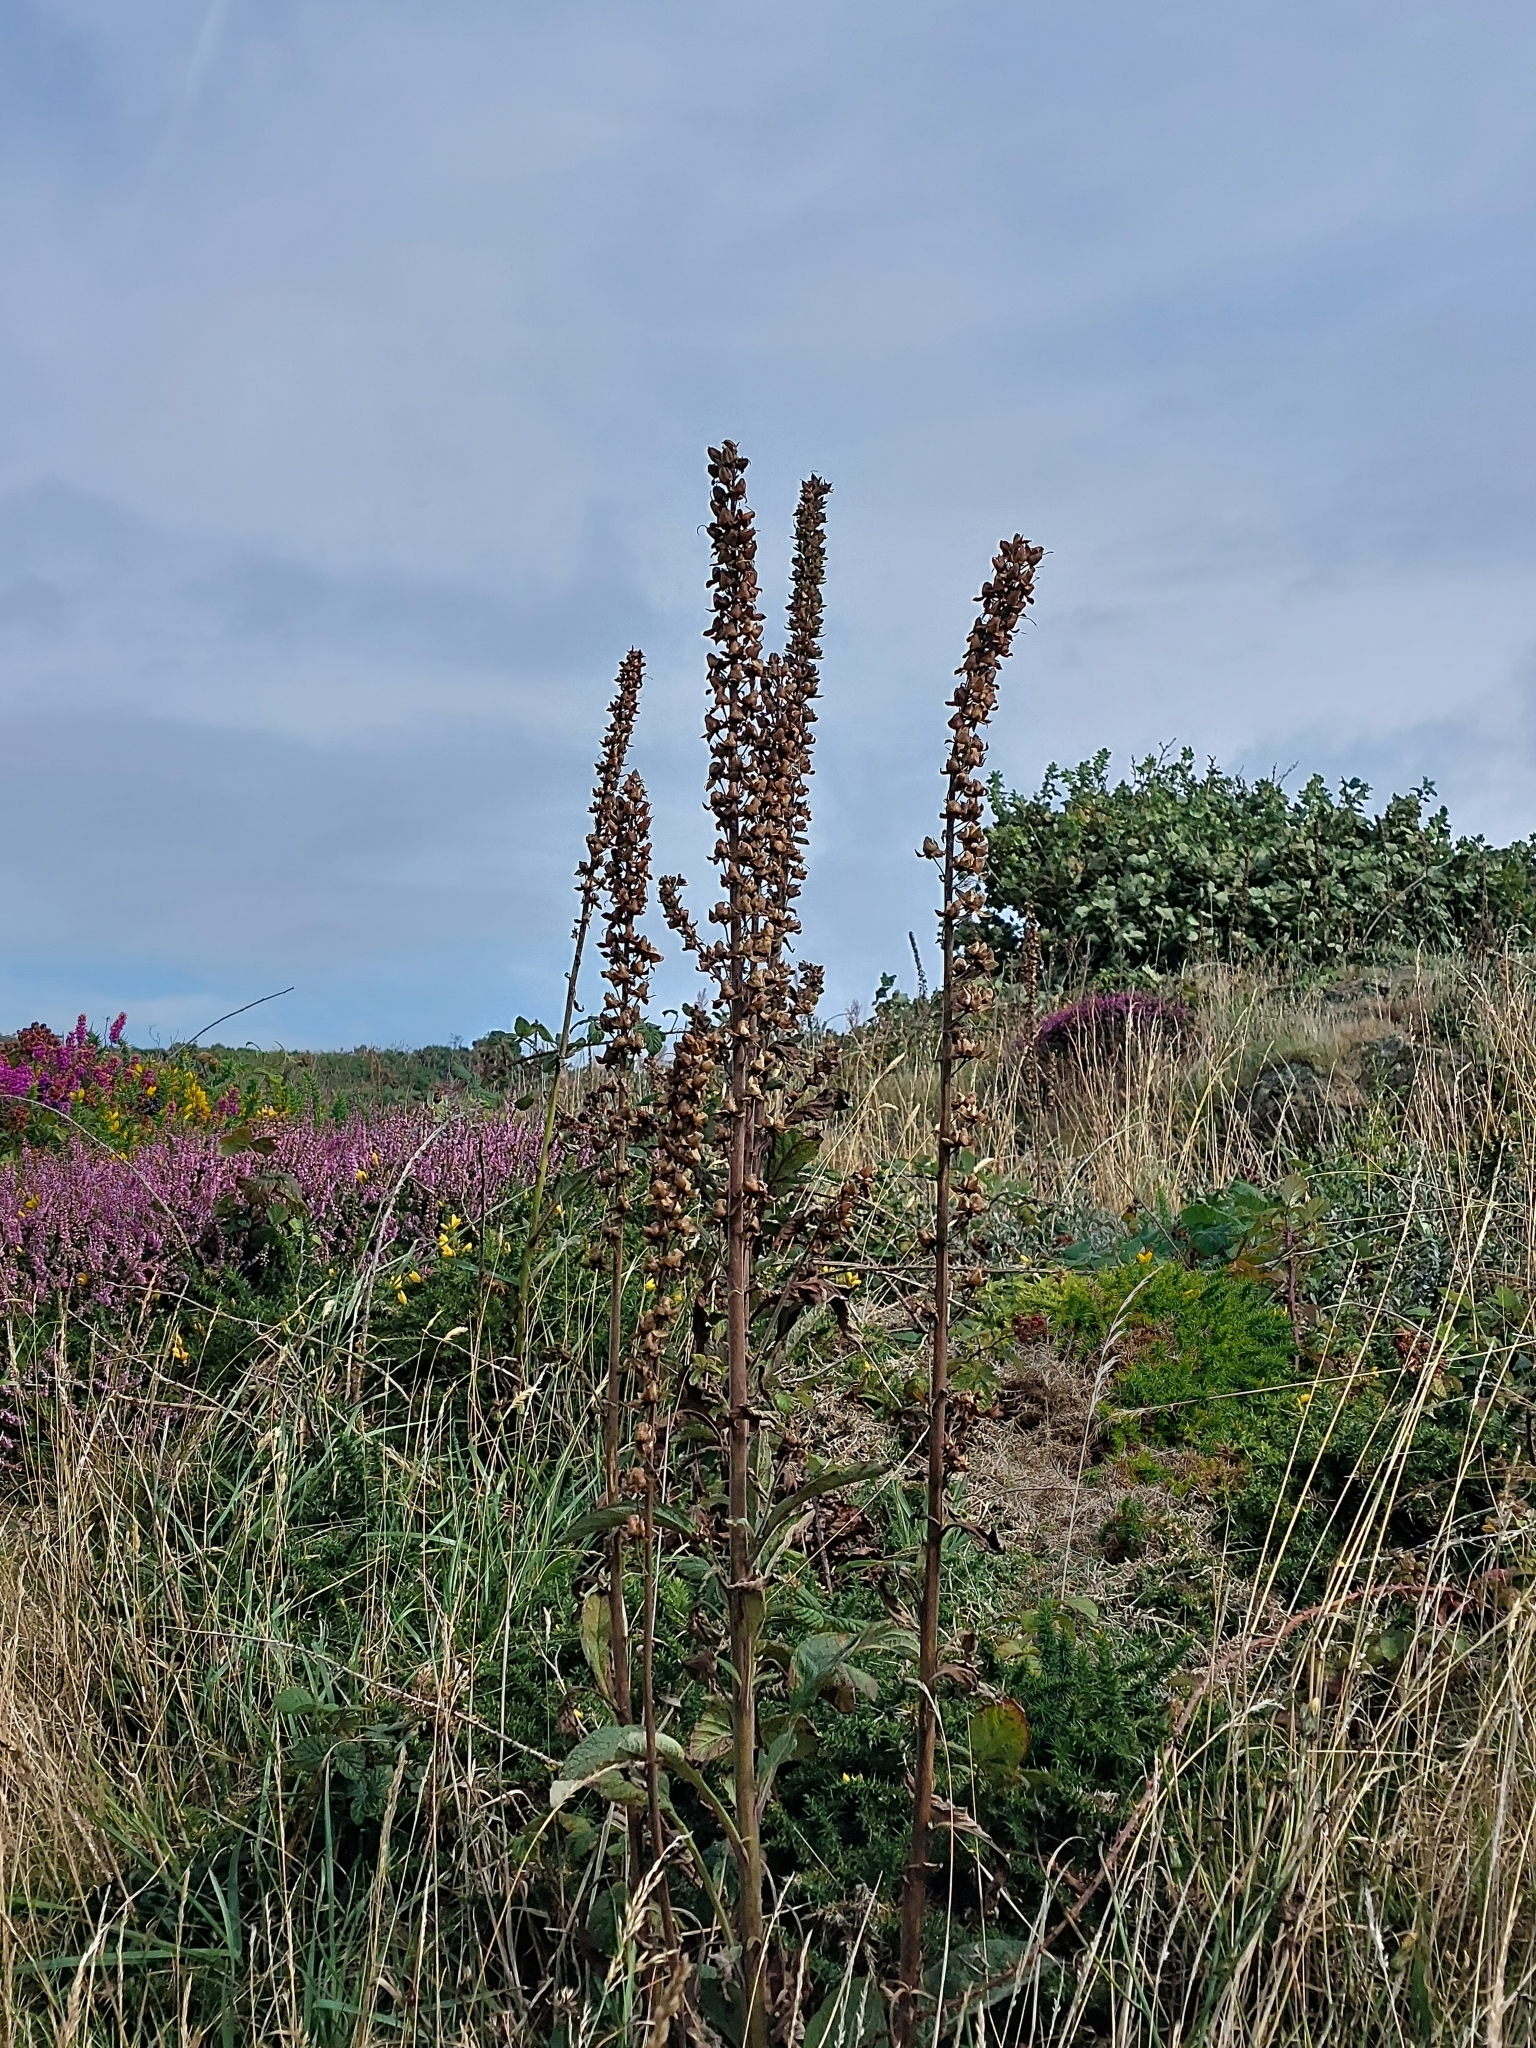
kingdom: Plantae
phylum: Tracheophyta
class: Magnoliopsida
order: Lamiales
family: Plantaginaceae
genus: Digitalis
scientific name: Digitalis purpurea
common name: Foxglove
